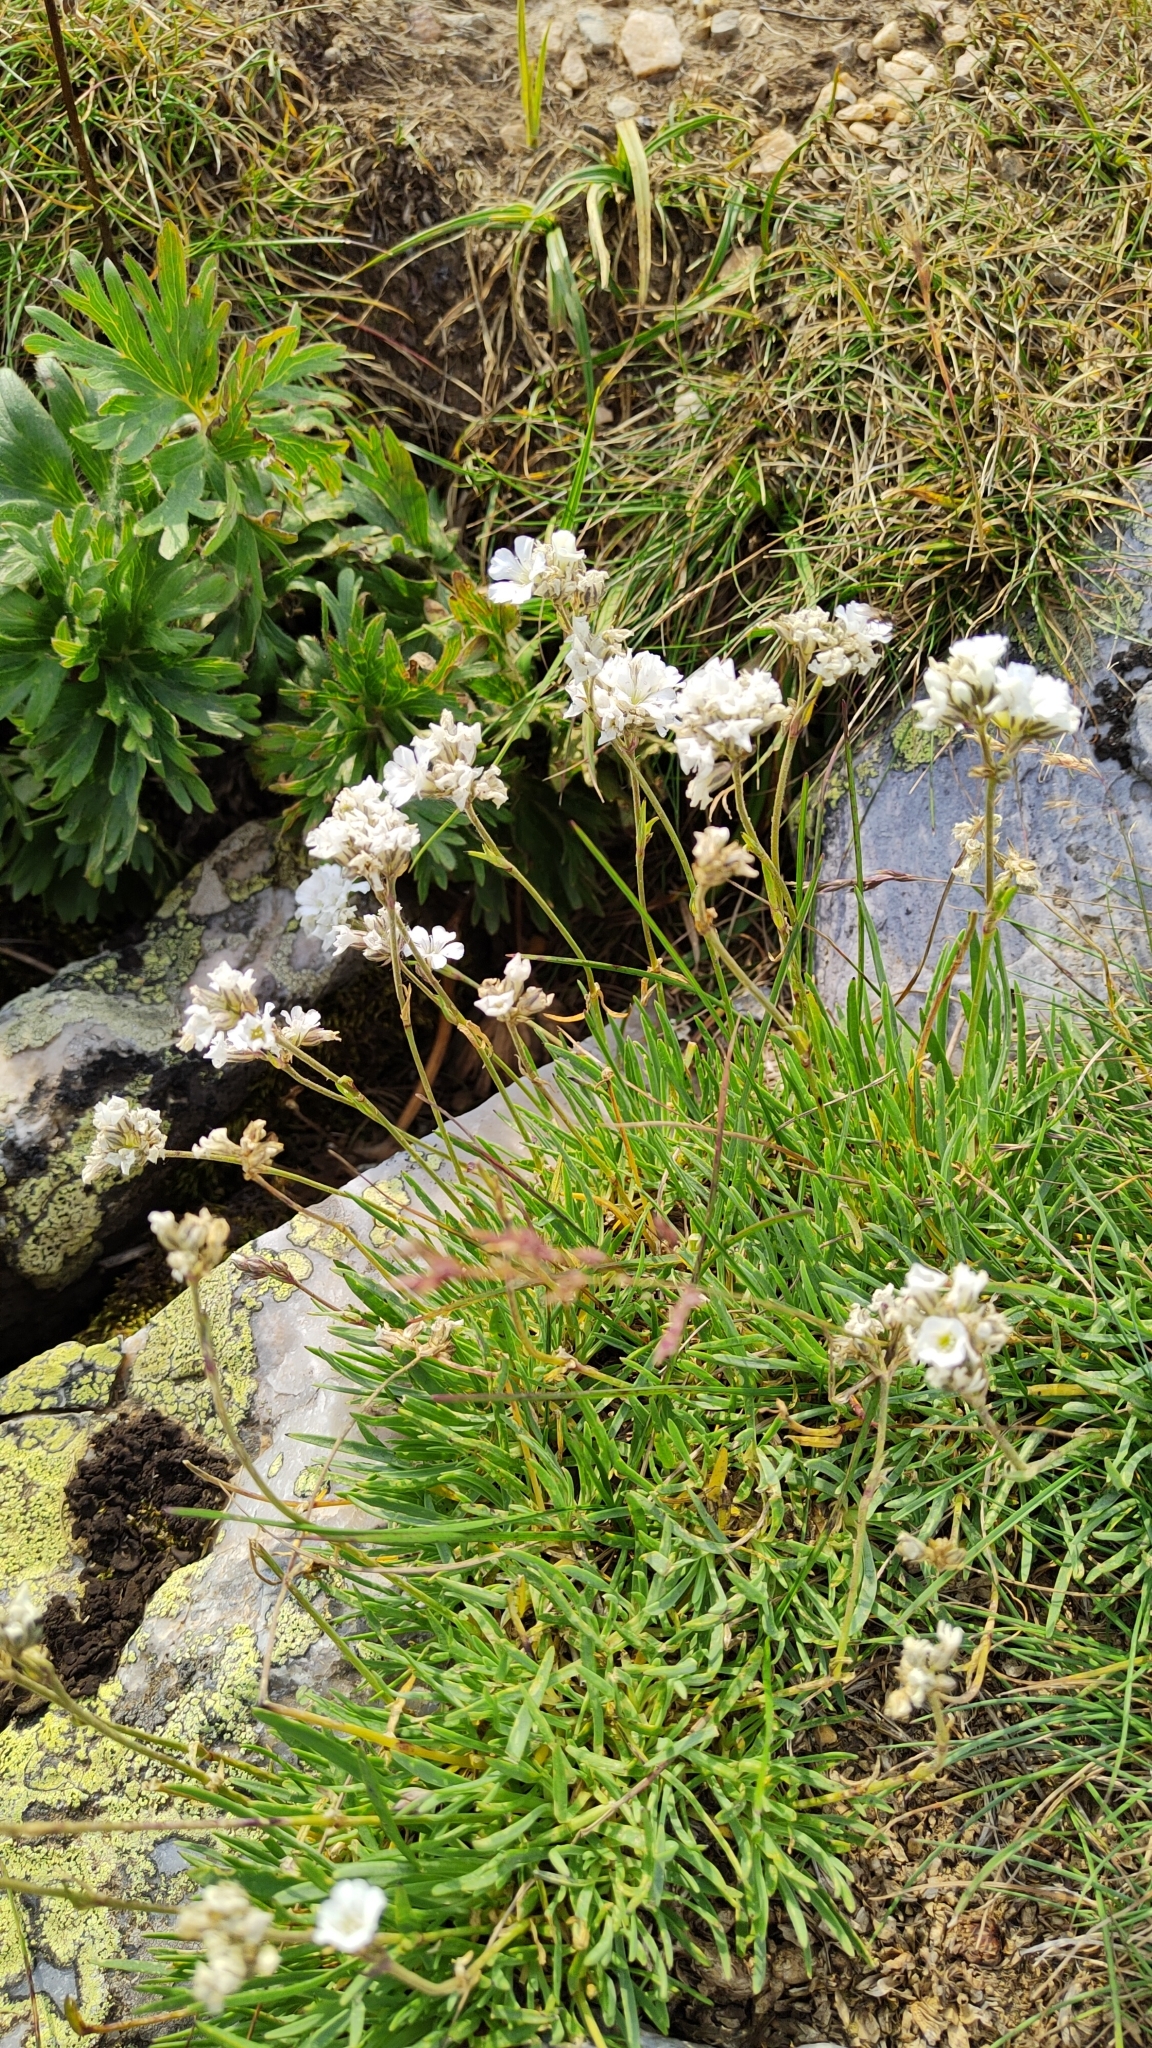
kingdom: Plantae
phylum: Tracheophyta
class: Magnoliopsida
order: Caryophyllales
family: Caryophyllaceae
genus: Gypsophila
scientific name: Gypsophila uralensis
